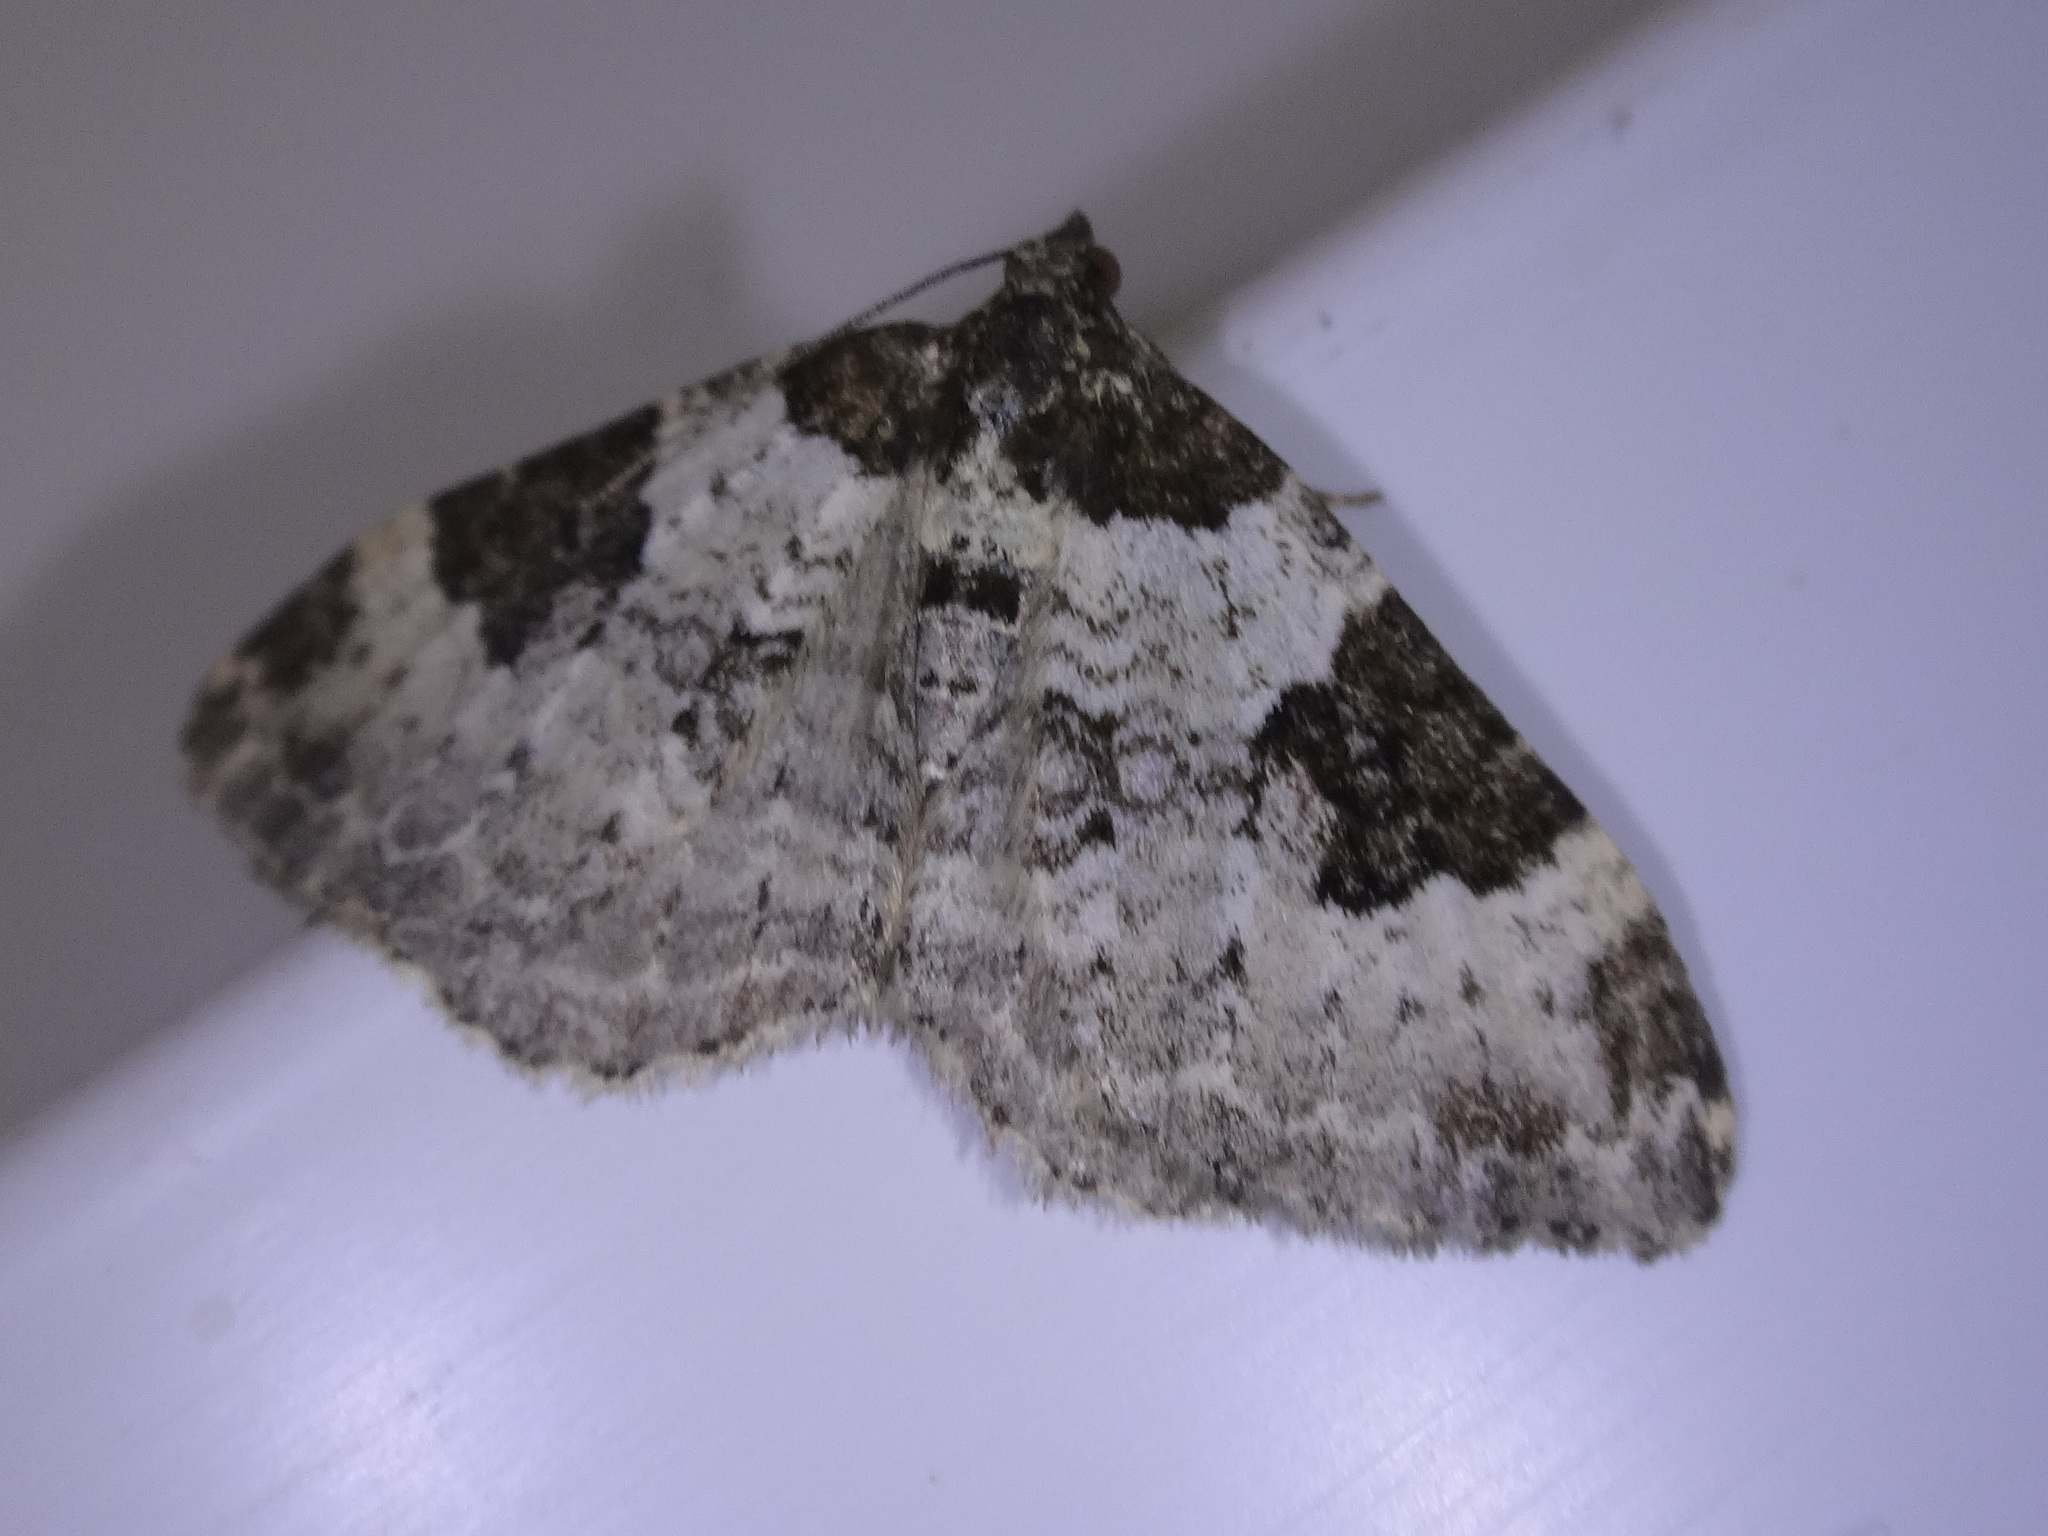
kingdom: Animalia
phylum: Arthropoda
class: Insecta
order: Lepidoptera
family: Geometridae
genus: Xanthorhoe
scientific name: Xanthorhoe fluctuata
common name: Garden carpet
